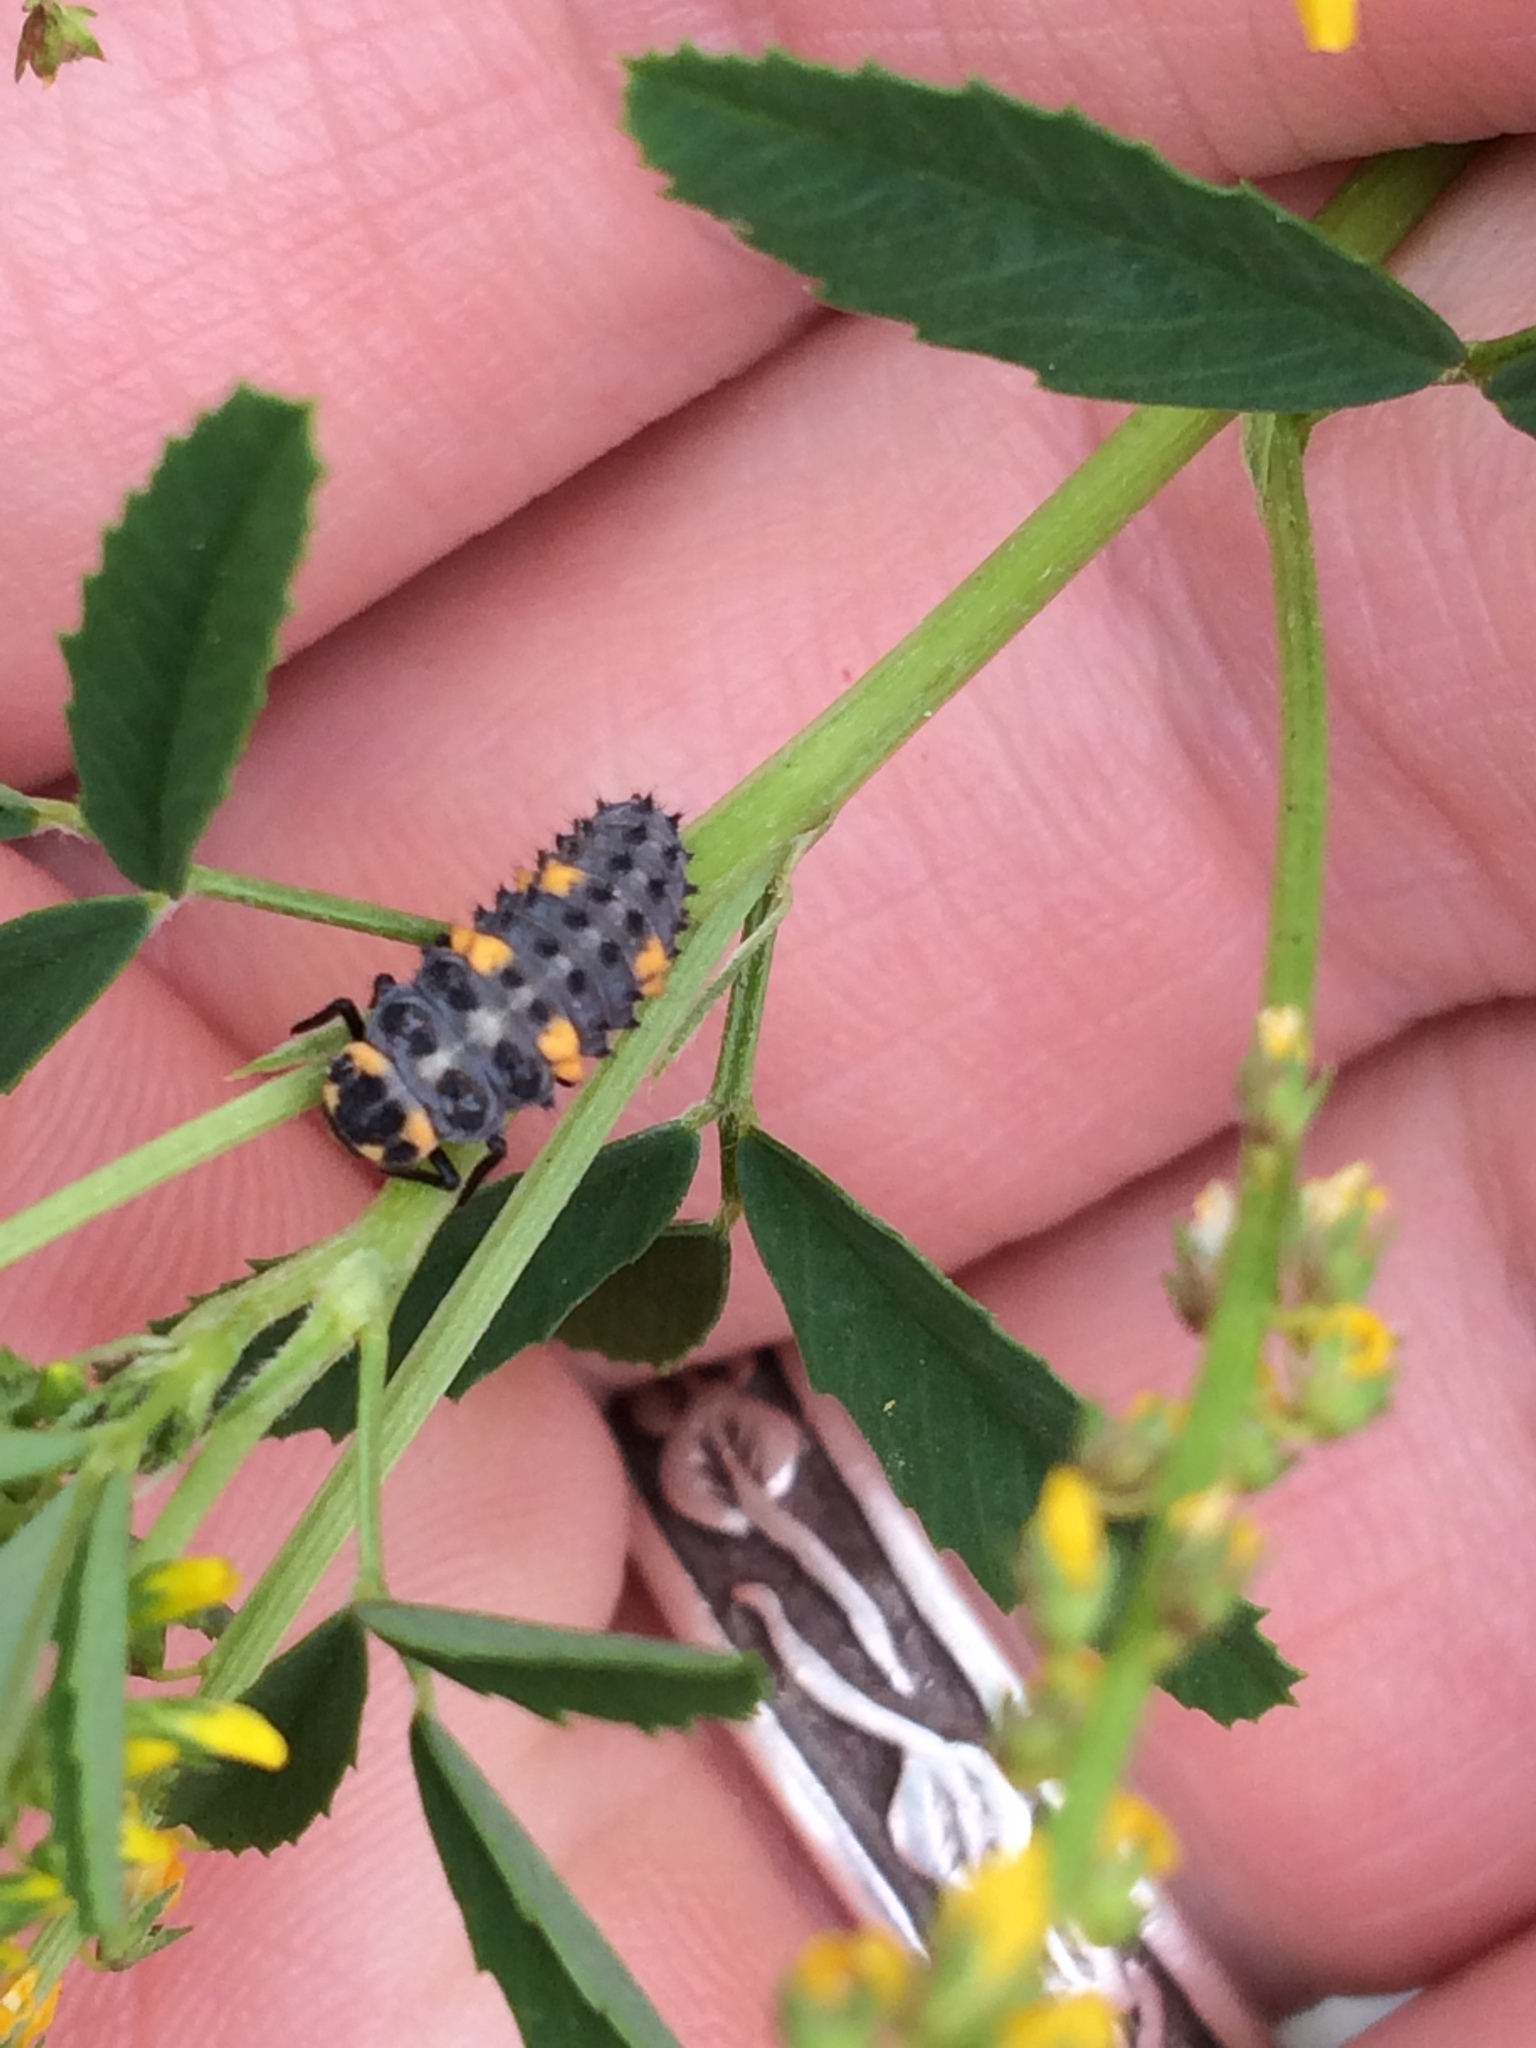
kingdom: Animalia
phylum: Arthropoda
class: Insecta
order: Coleoptera
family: Coccinellidae
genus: Coccinella
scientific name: Coccinella septempunctata
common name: Sevenspotted lady beetle
